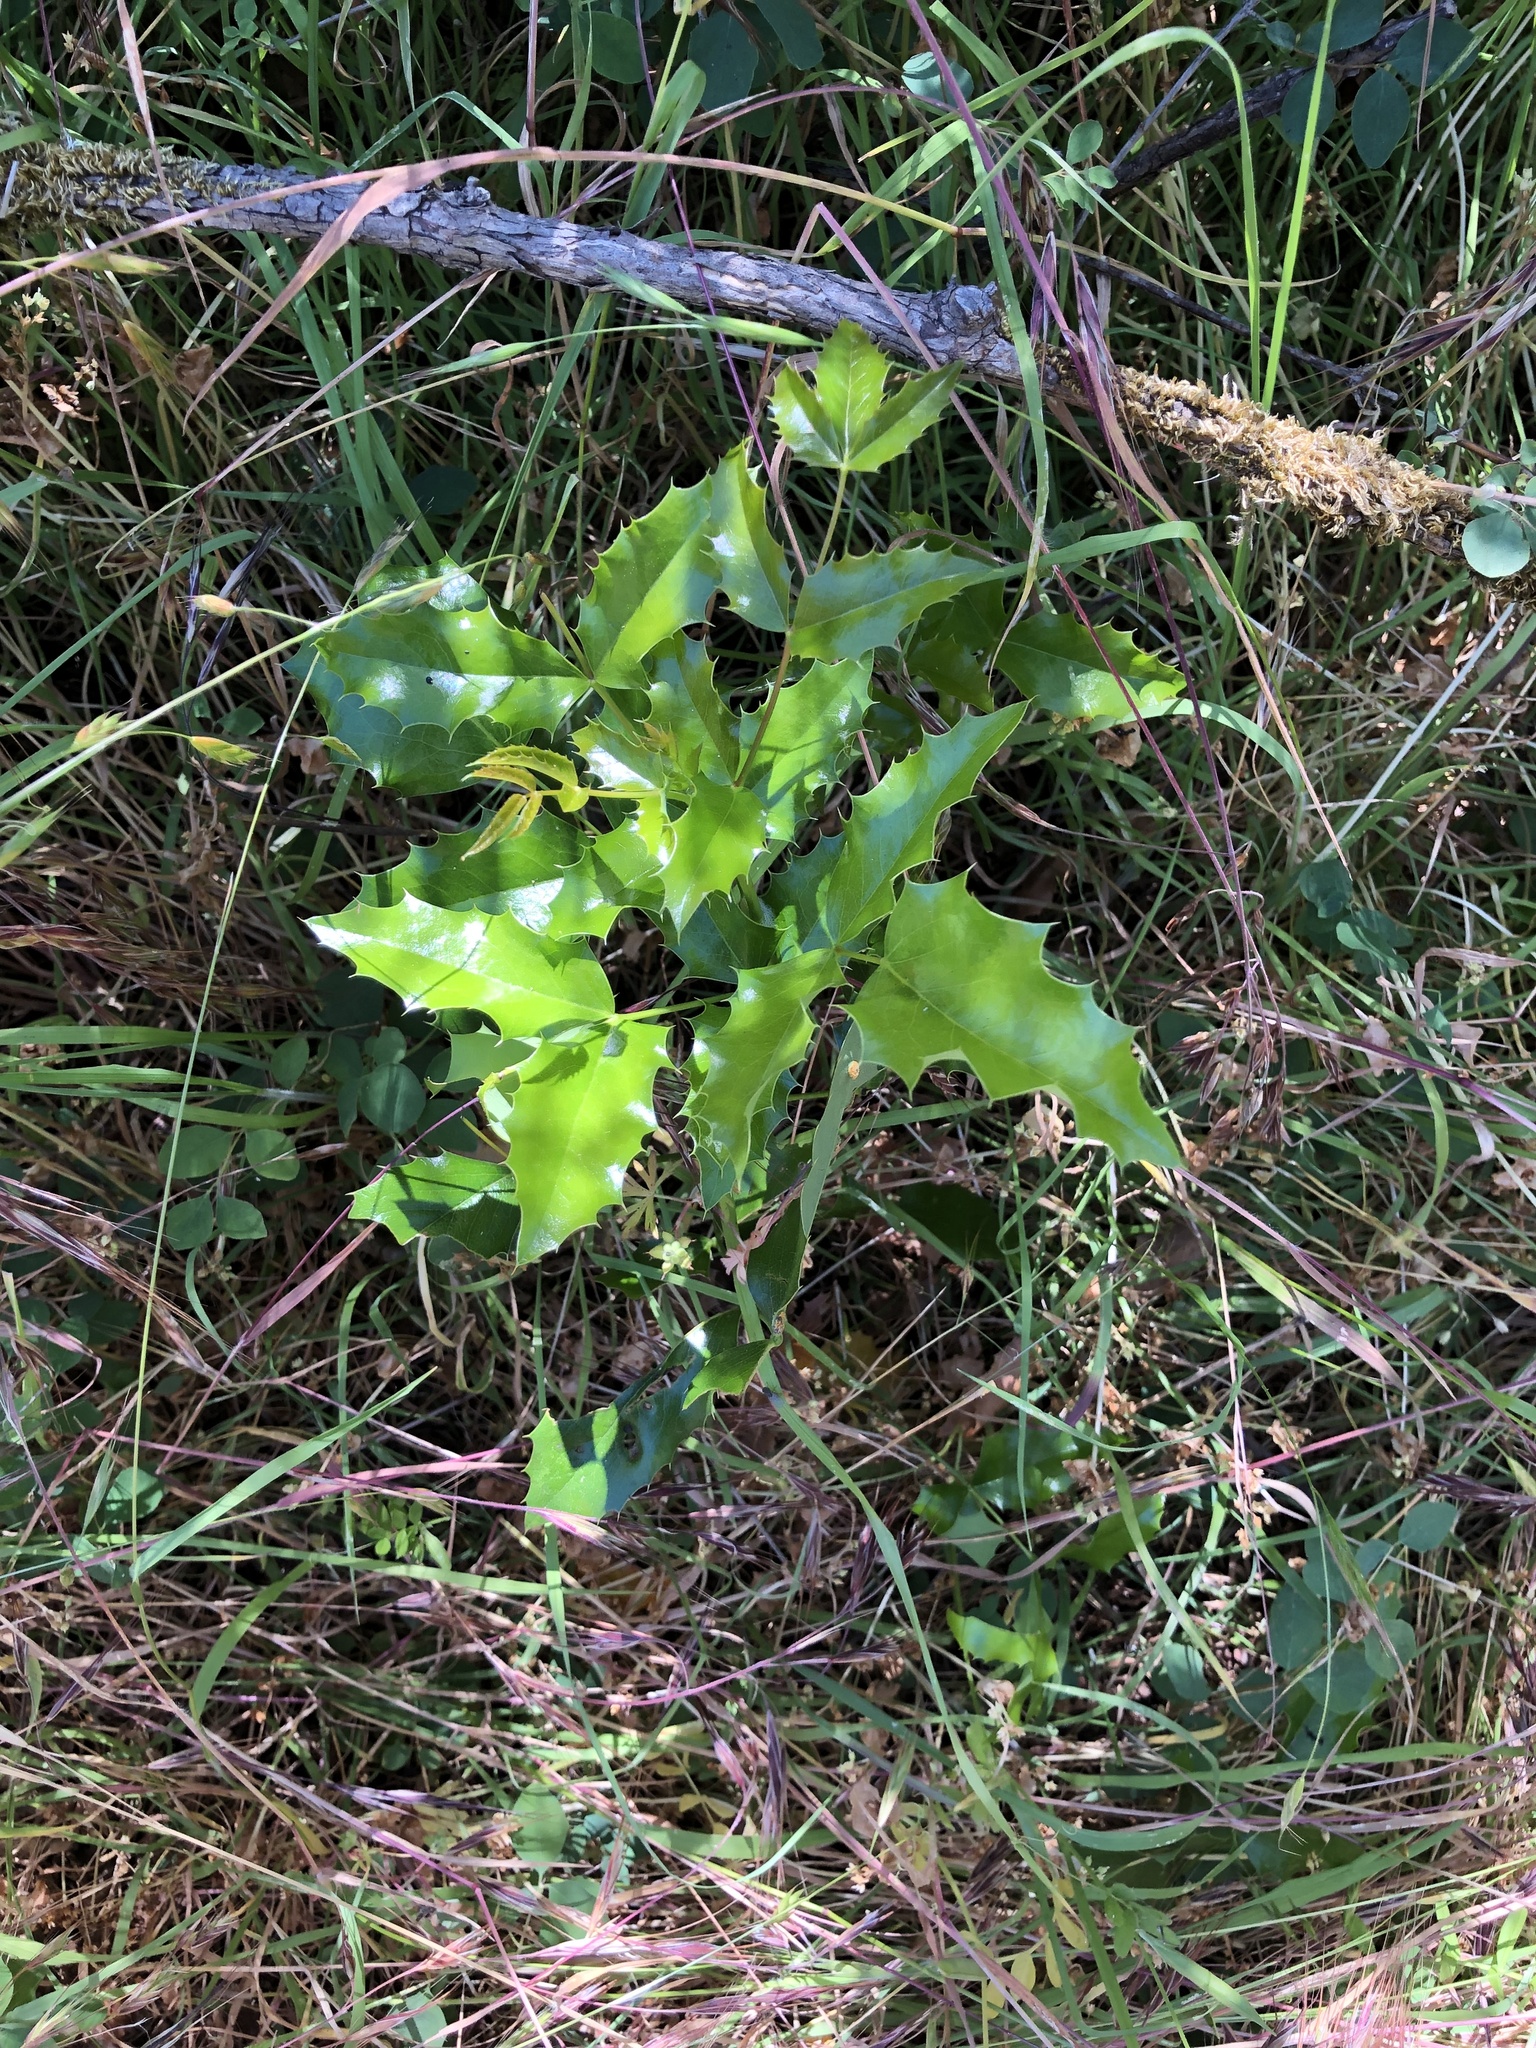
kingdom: Plantae
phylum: Tracheophyta
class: Magnoliopsida
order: Ranunculales
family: Berberidaceae
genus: Mahonia
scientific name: Mahonia aquifolium
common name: Oregon-grape
